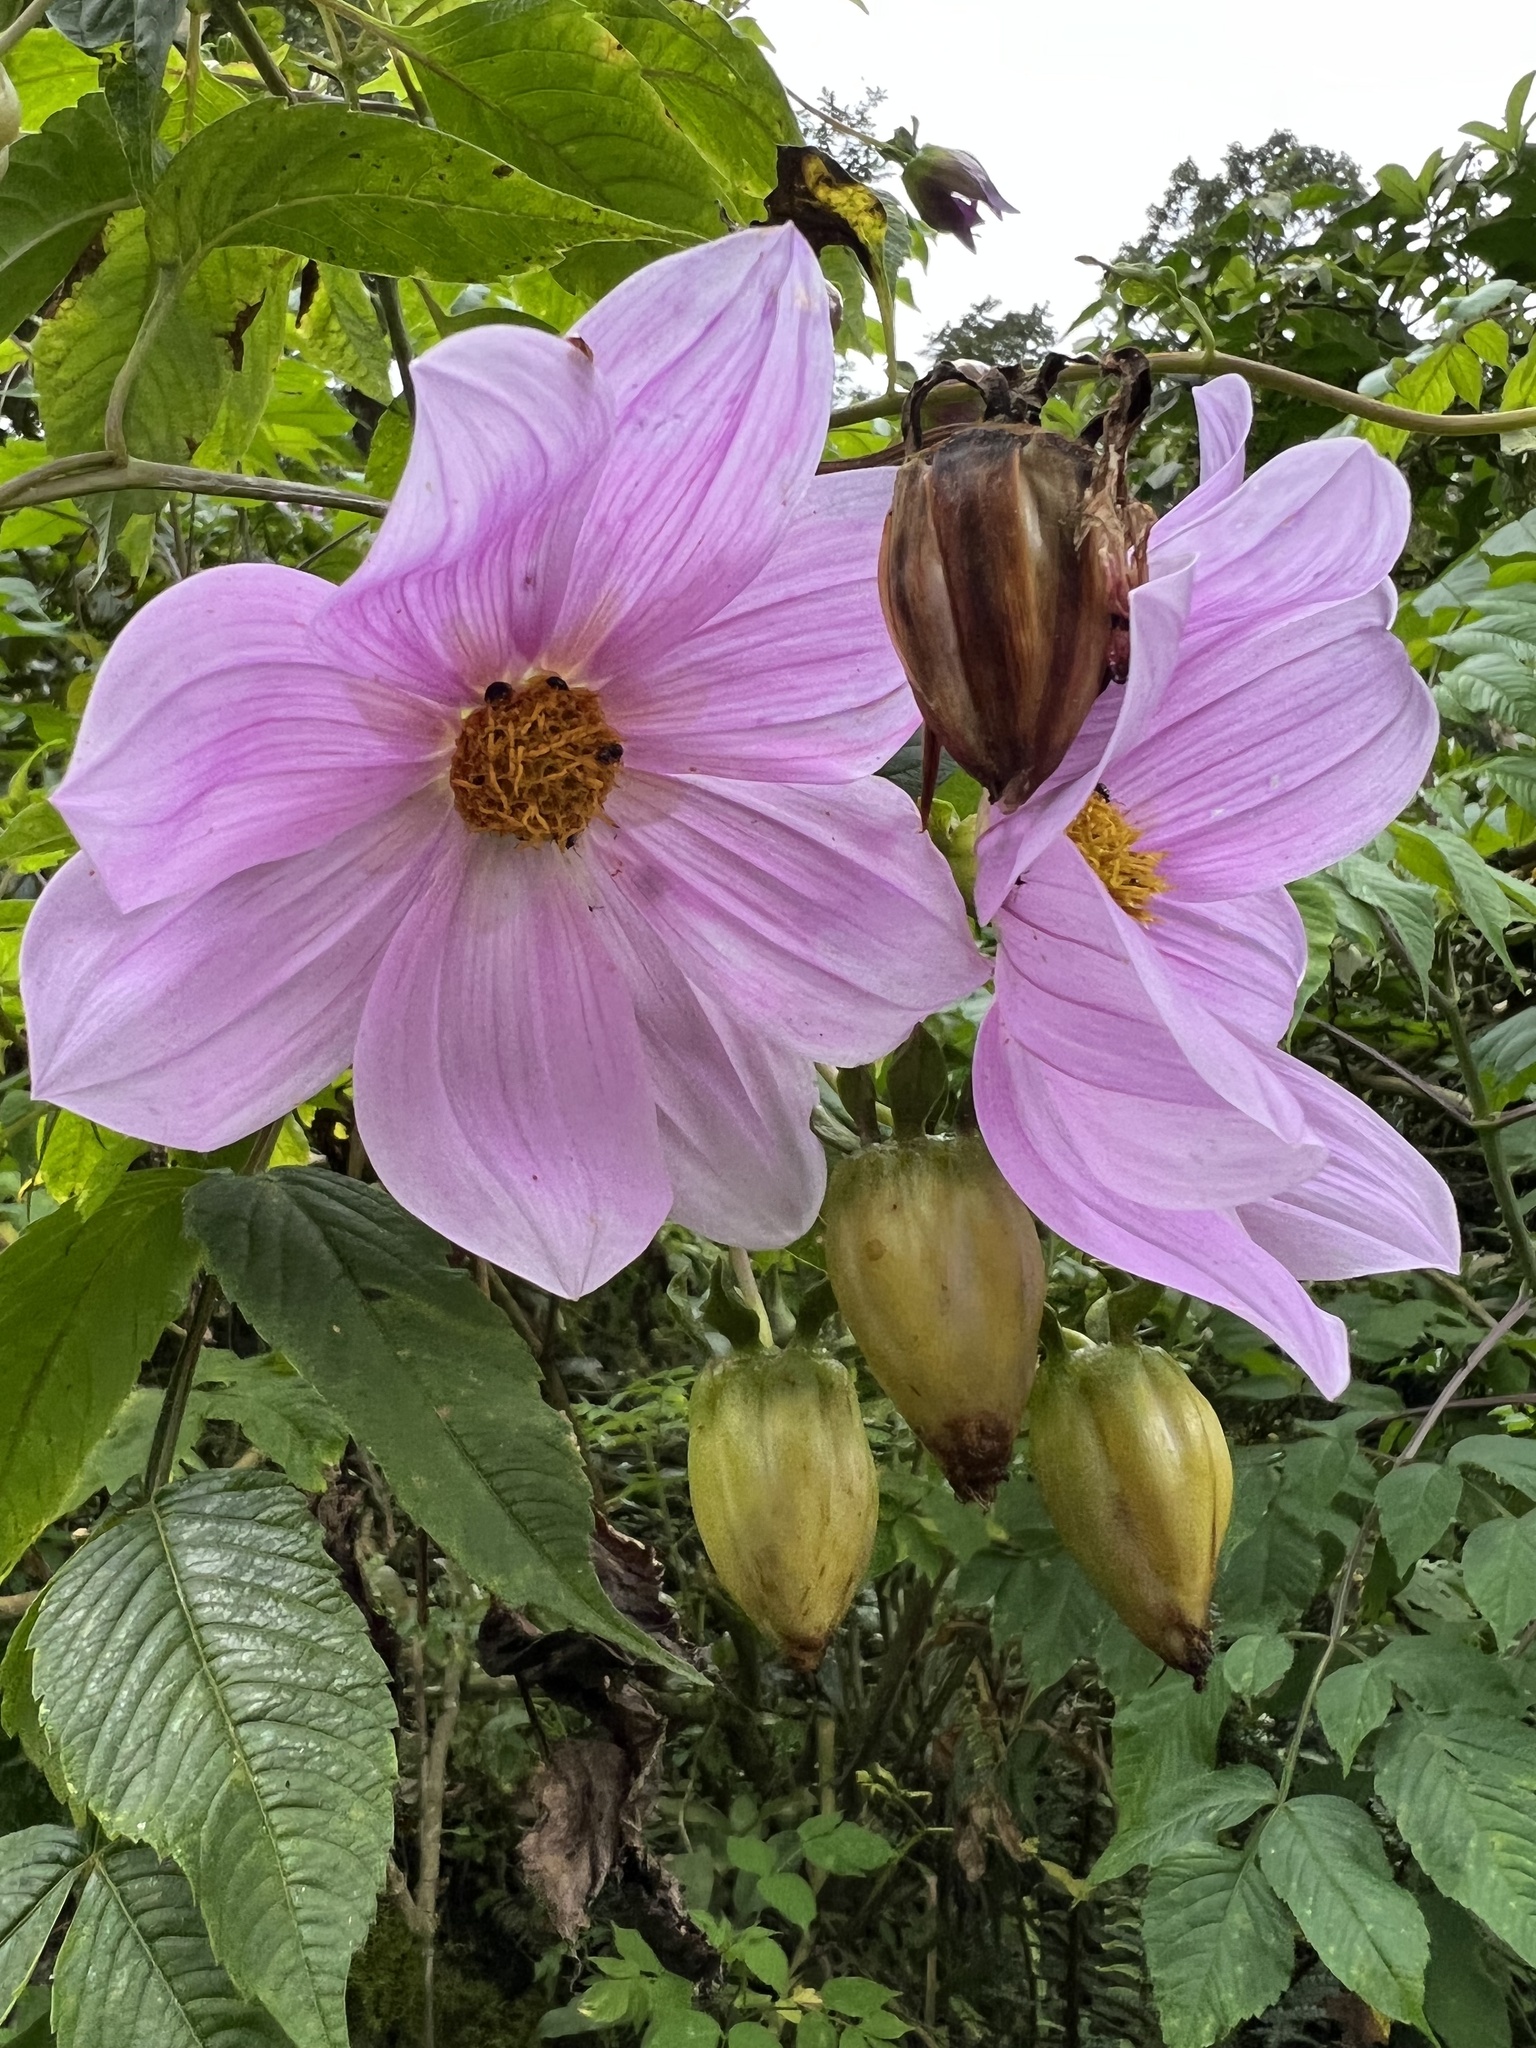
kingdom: Plantae
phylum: Tracheophyta
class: Magnoliopsida
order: Asterales
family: Asteraceae
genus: Dahlia
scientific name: Dahlia imperialis
